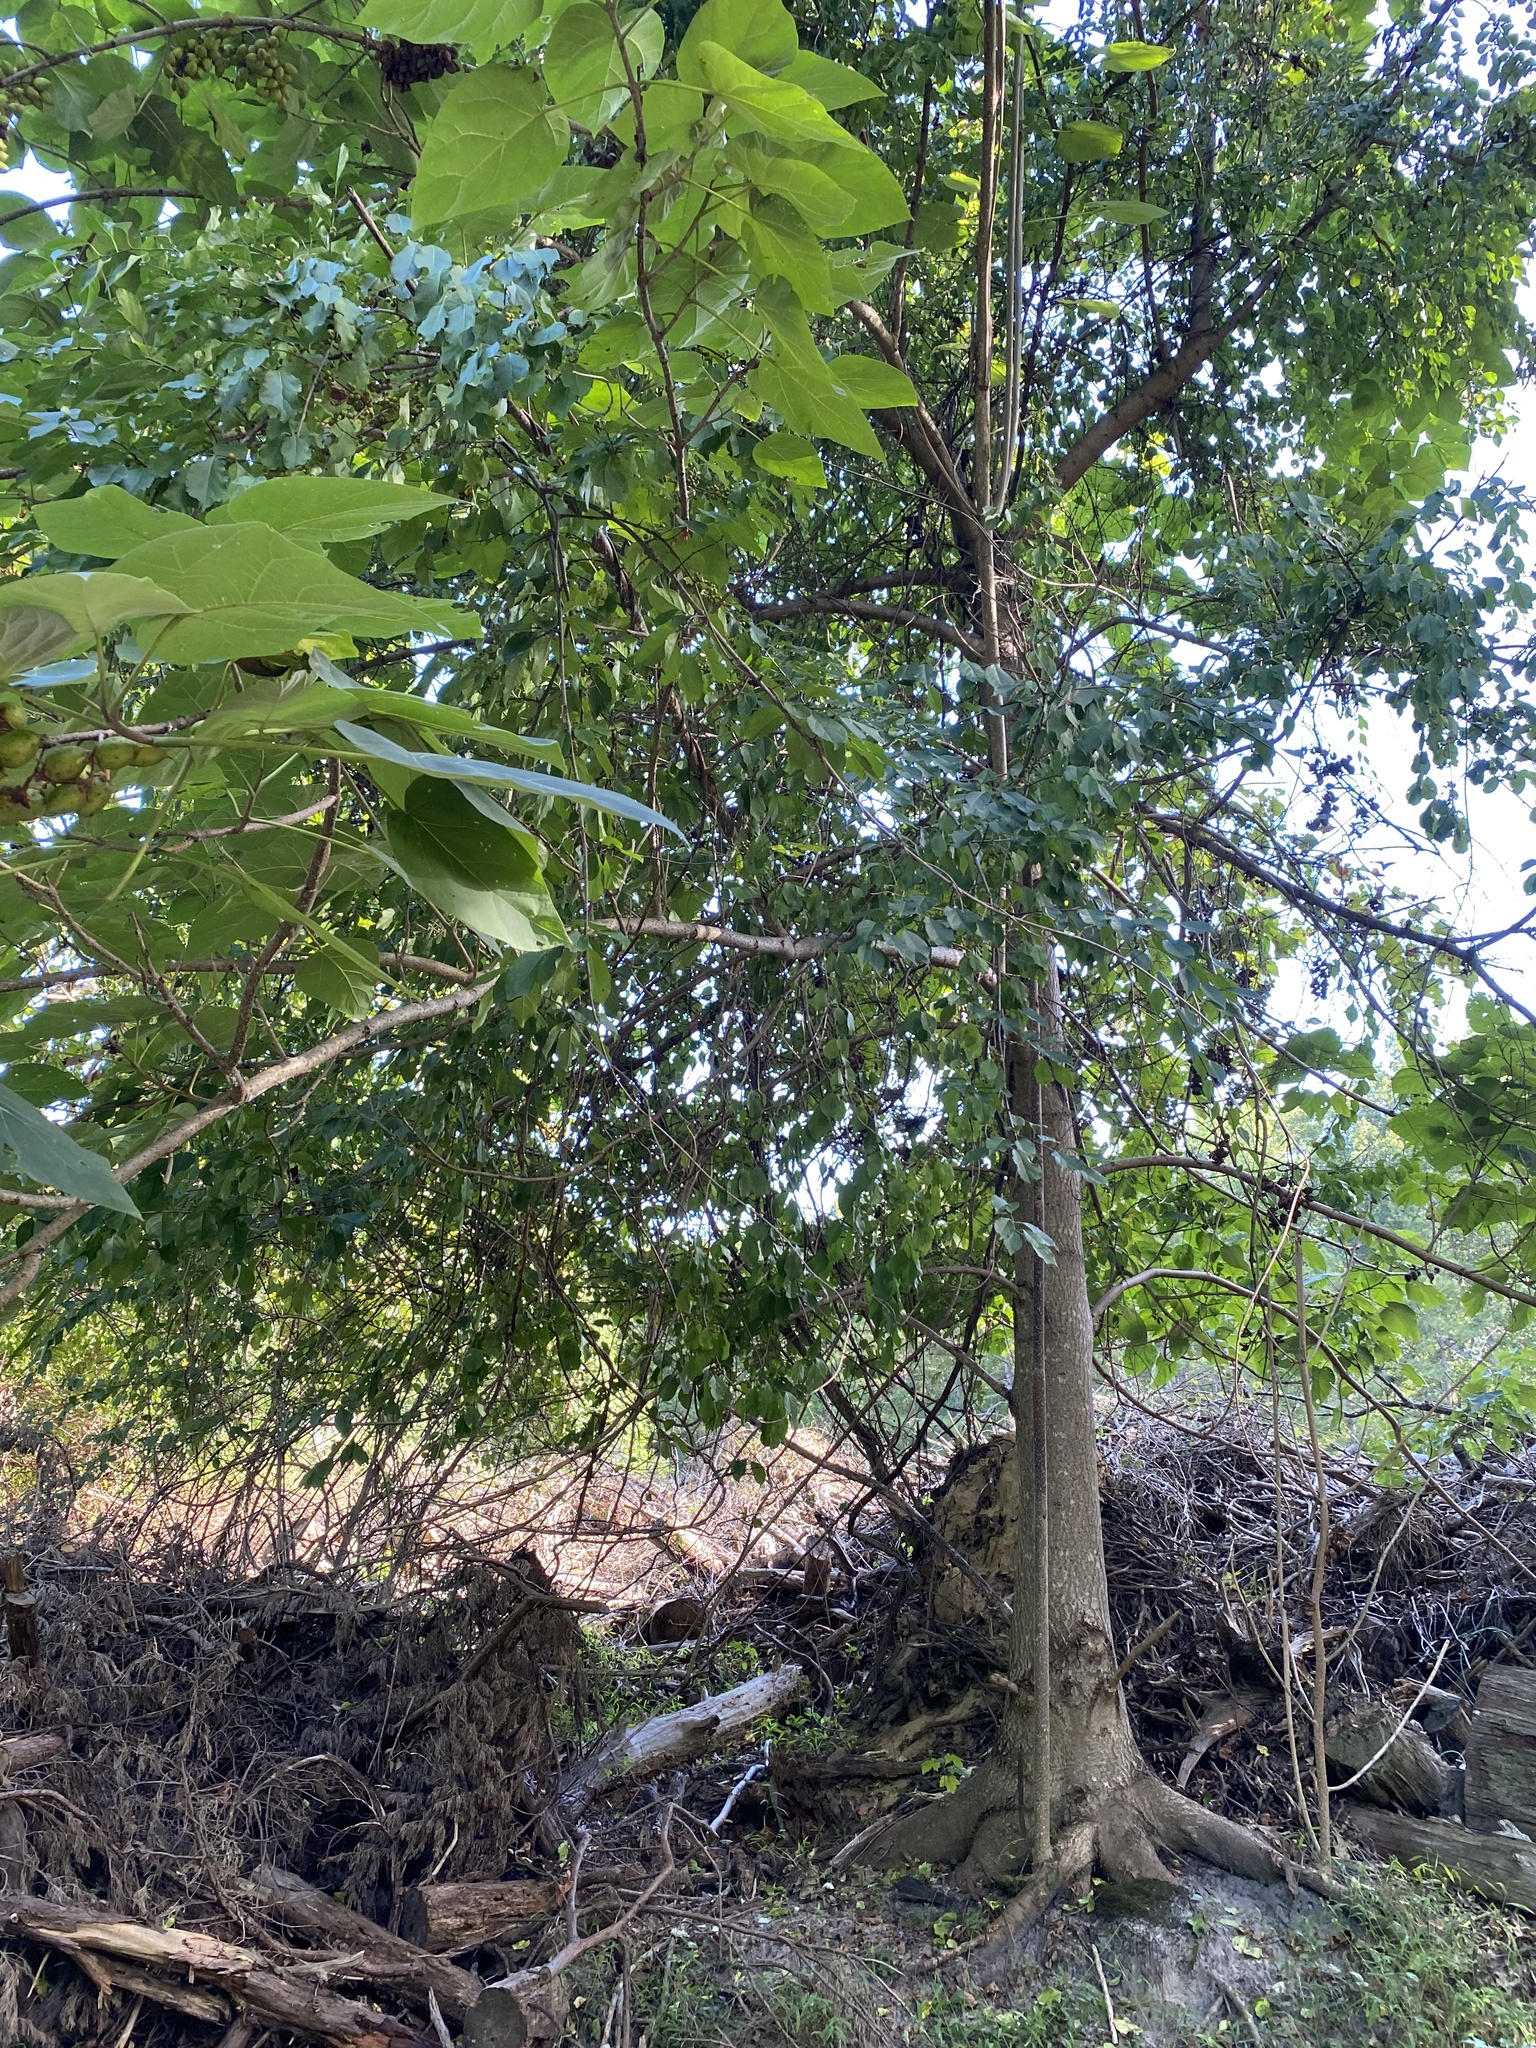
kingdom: Plantae
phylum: Tracheophyta
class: Magnoliopsida
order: Lamiales
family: Paulowniaceae
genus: Paulownia
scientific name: Paulownia tomentosa
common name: Foxglove-tree
